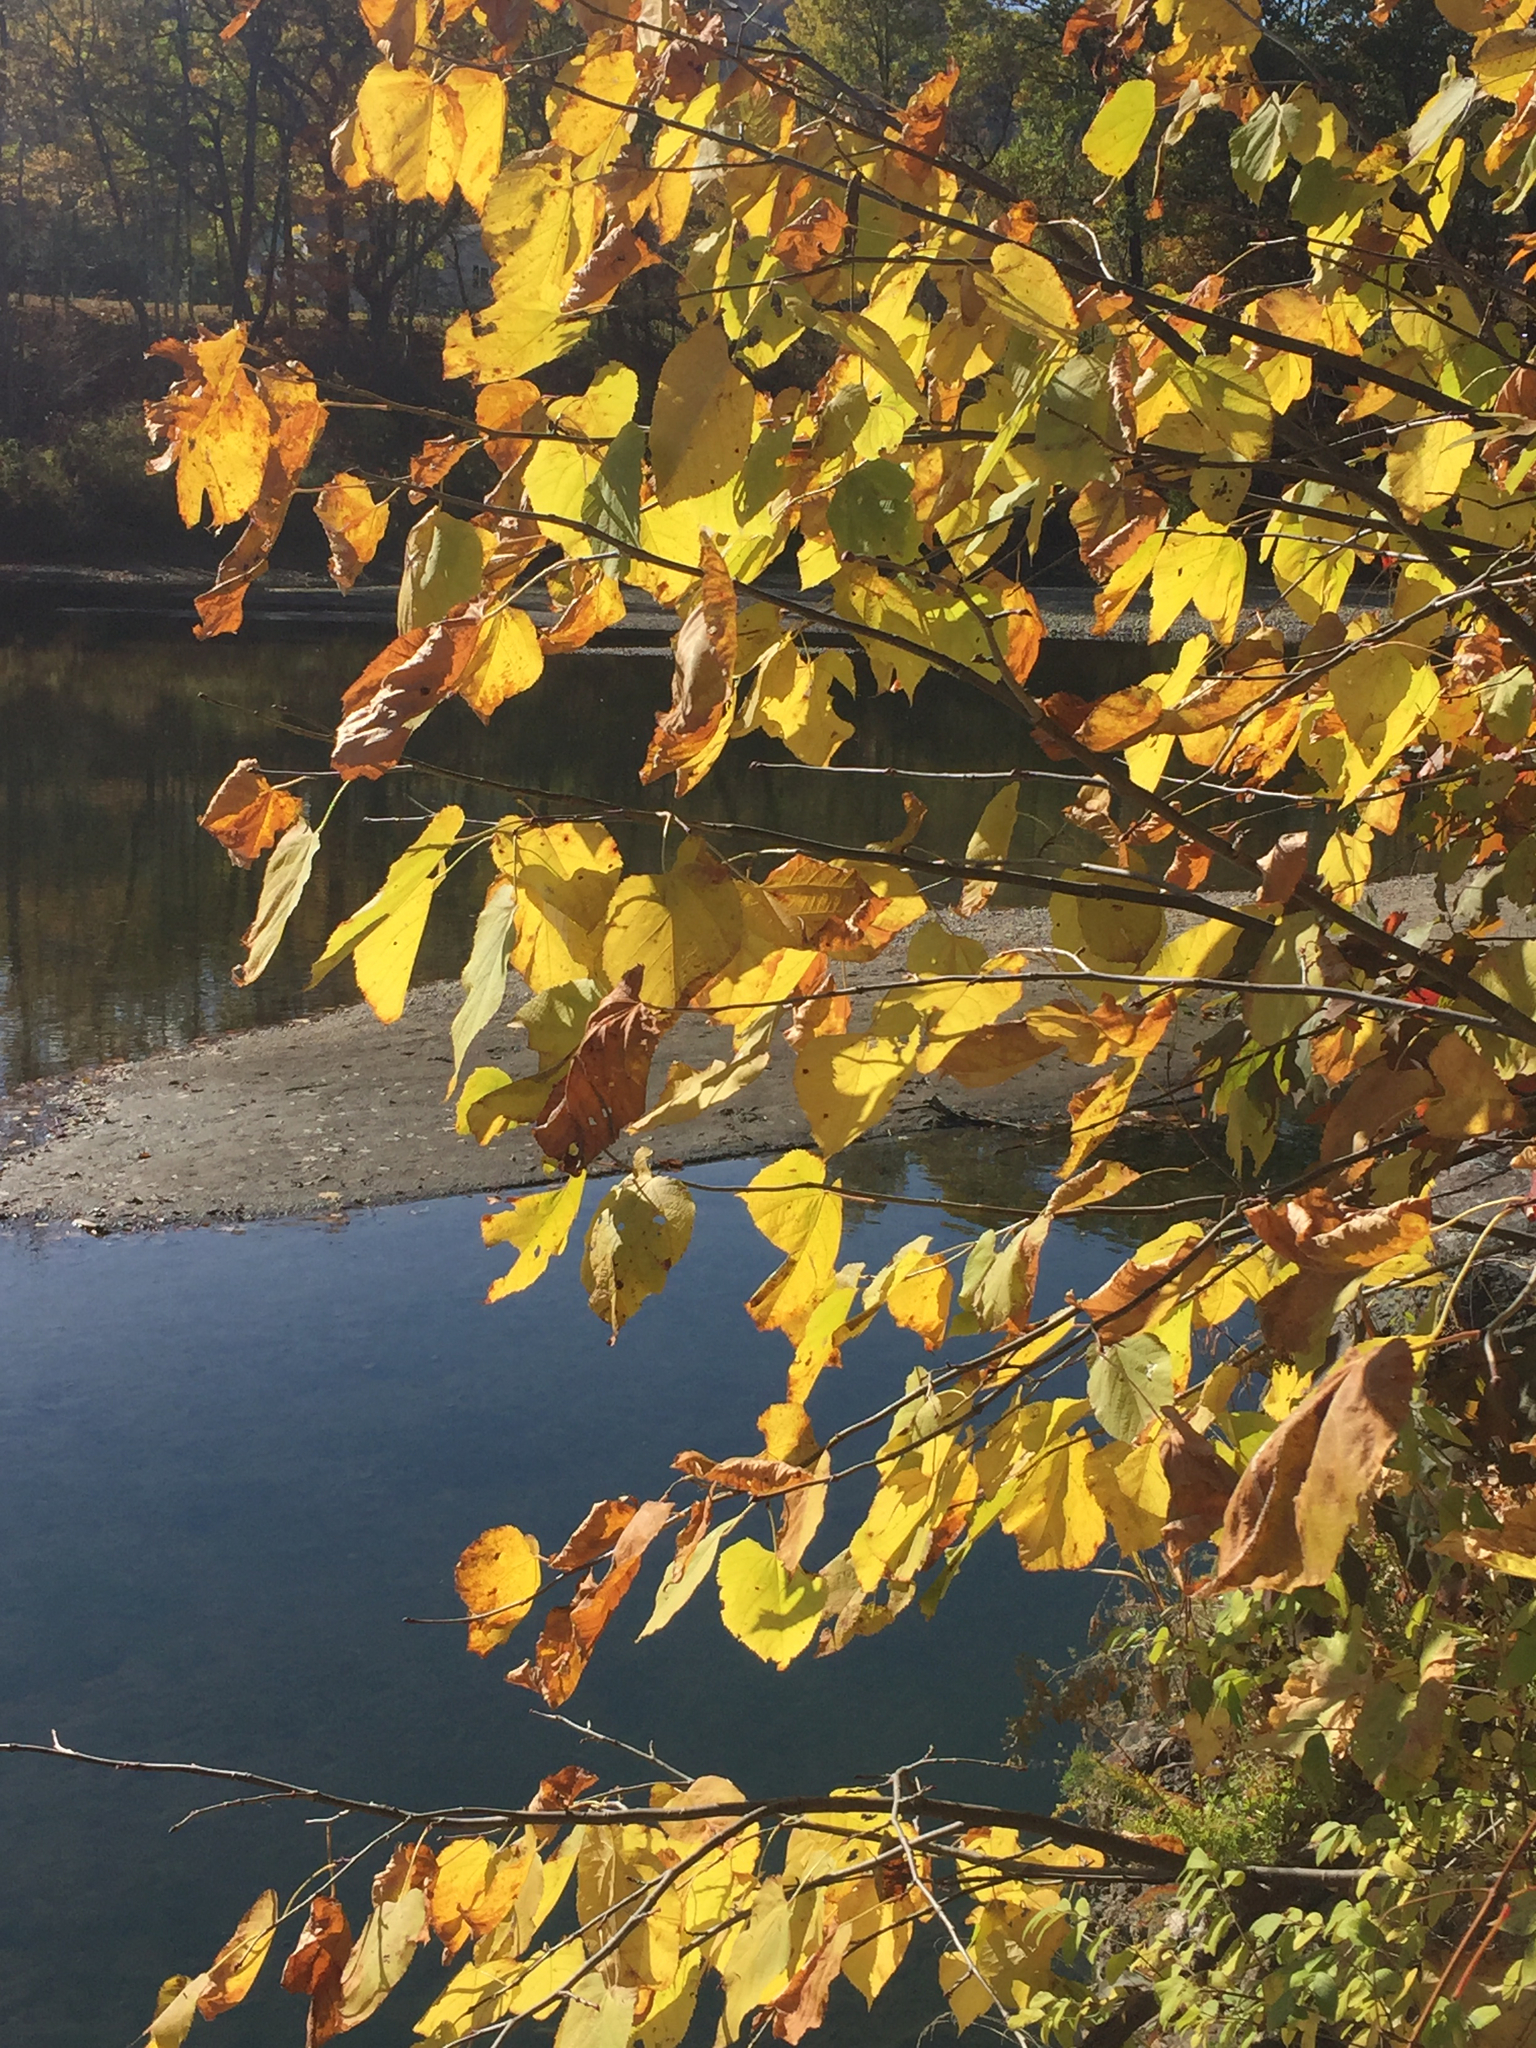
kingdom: Plantae
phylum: Tracheophyta
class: Magnoliopsida
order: Malvales
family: Malvaceae
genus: Tilia
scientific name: Tilia americana
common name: Basswood
